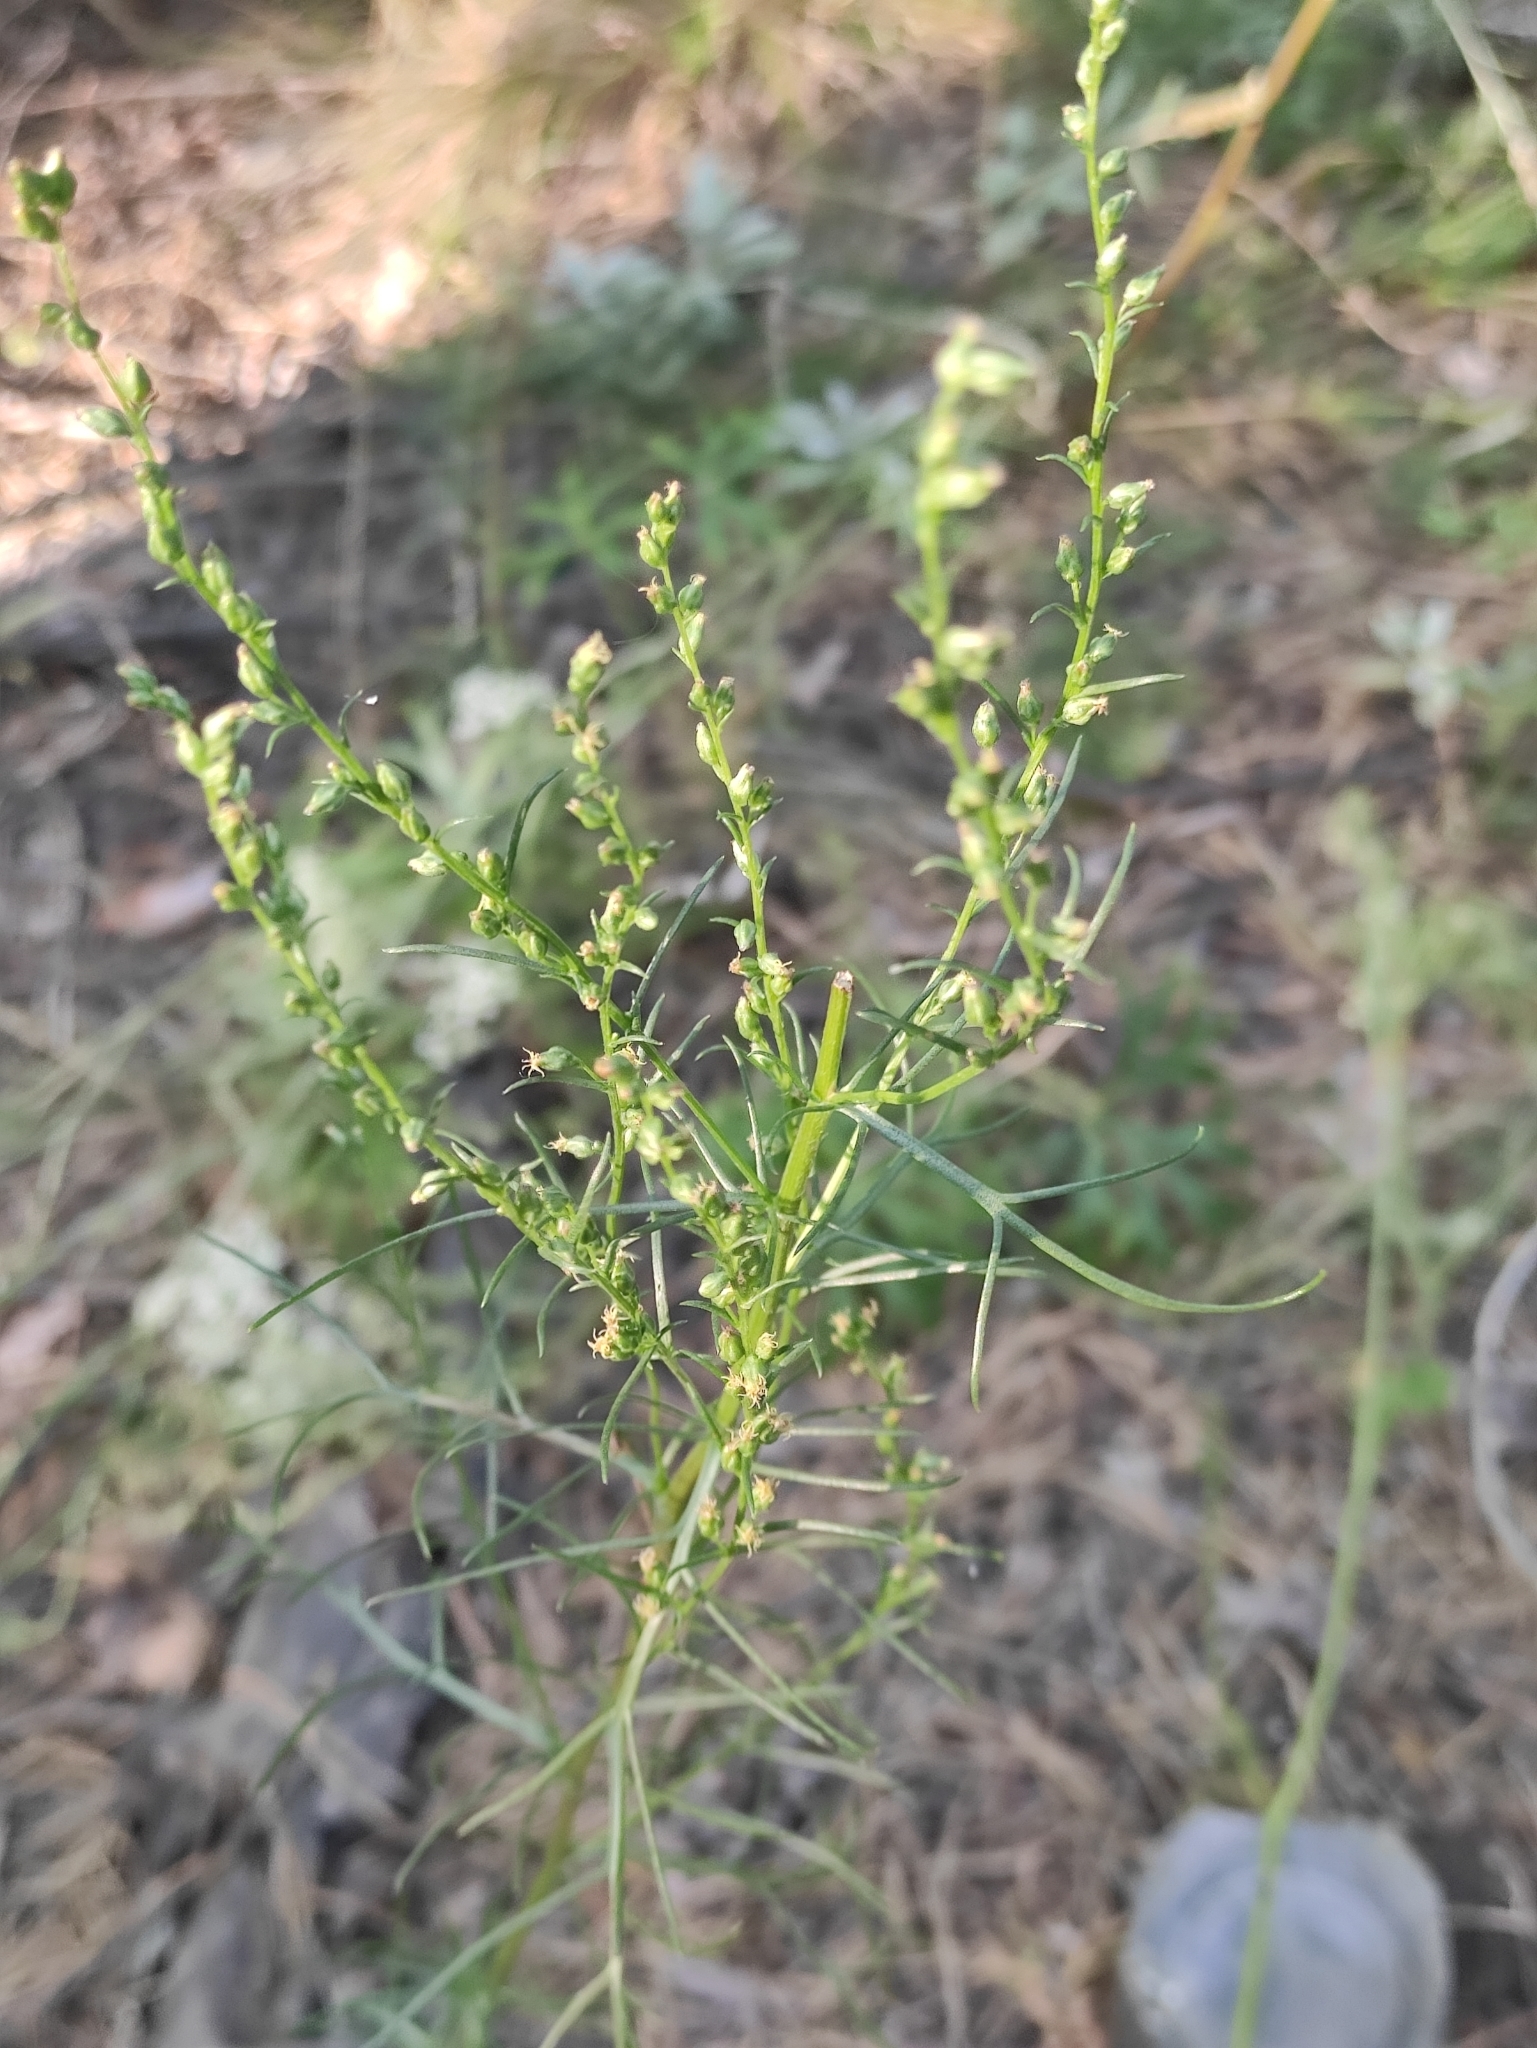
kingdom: Plantae
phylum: Tracheophyta
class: Magnoliopsida
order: Asterales
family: Asteraceae
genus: Artemisia
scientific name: Artemisia pubescens
